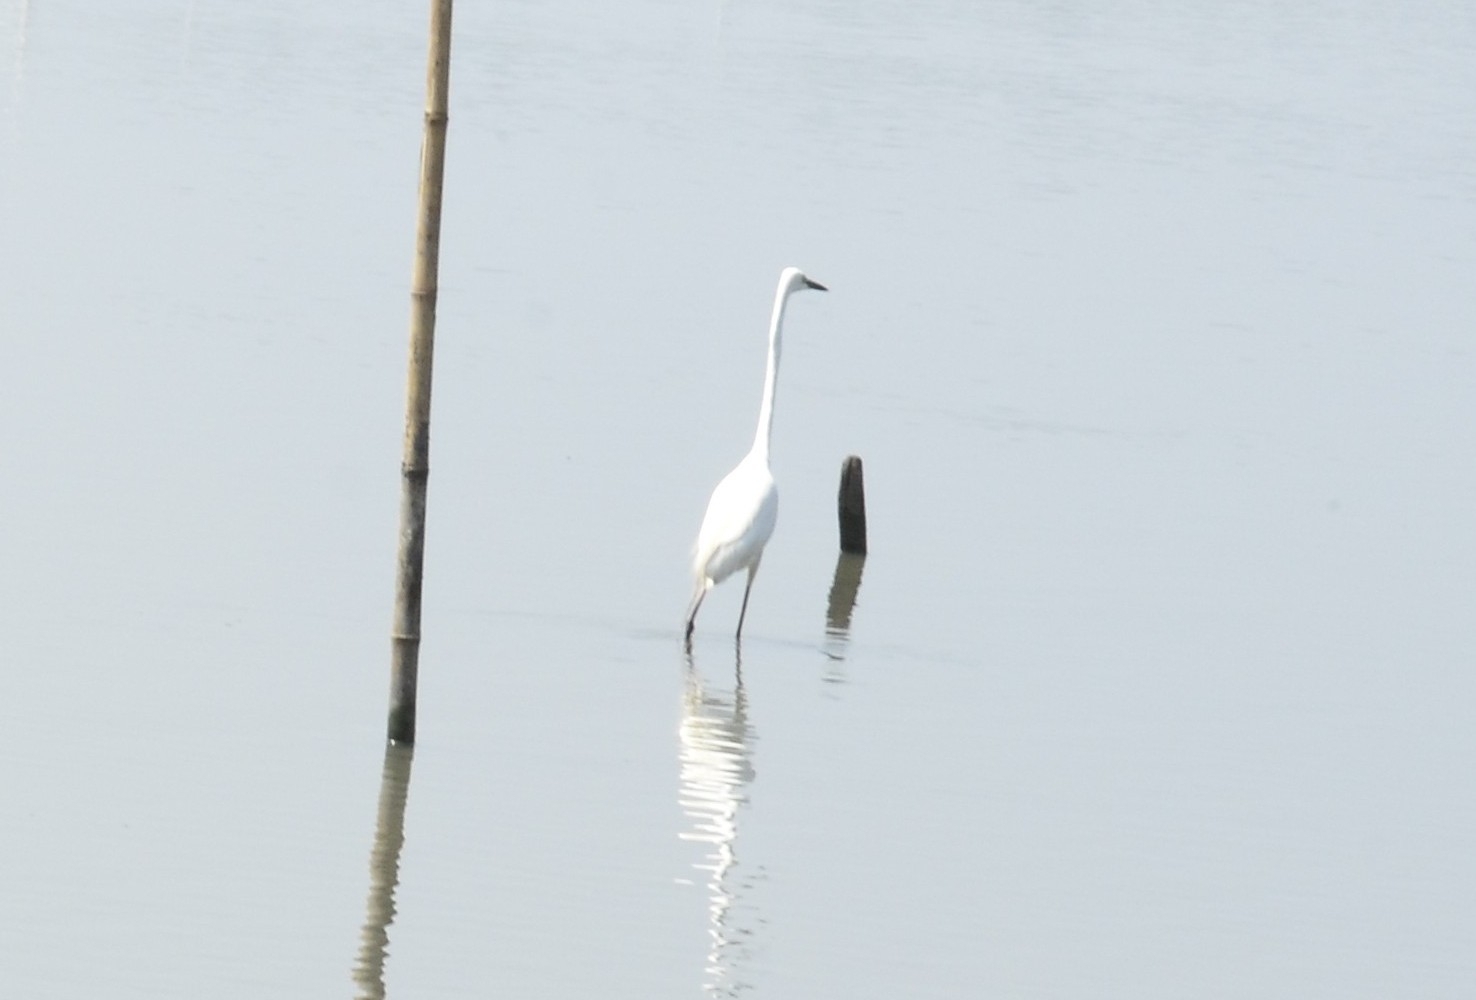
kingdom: Animalia
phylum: Chordata
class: Aves
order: Pelecaniformes
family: Ardeidae
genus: Ardea
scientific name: Ardea alba
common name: Great egret
